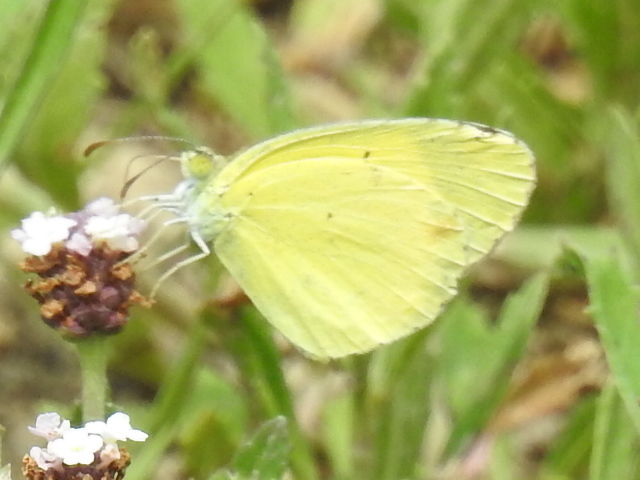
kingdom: Animalia
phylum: Arthropoda
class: Insecta
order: Lepidoptera
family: Pieridae
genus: Pyrisitia
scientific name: Pyrisitia lisa
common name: Little yellow
